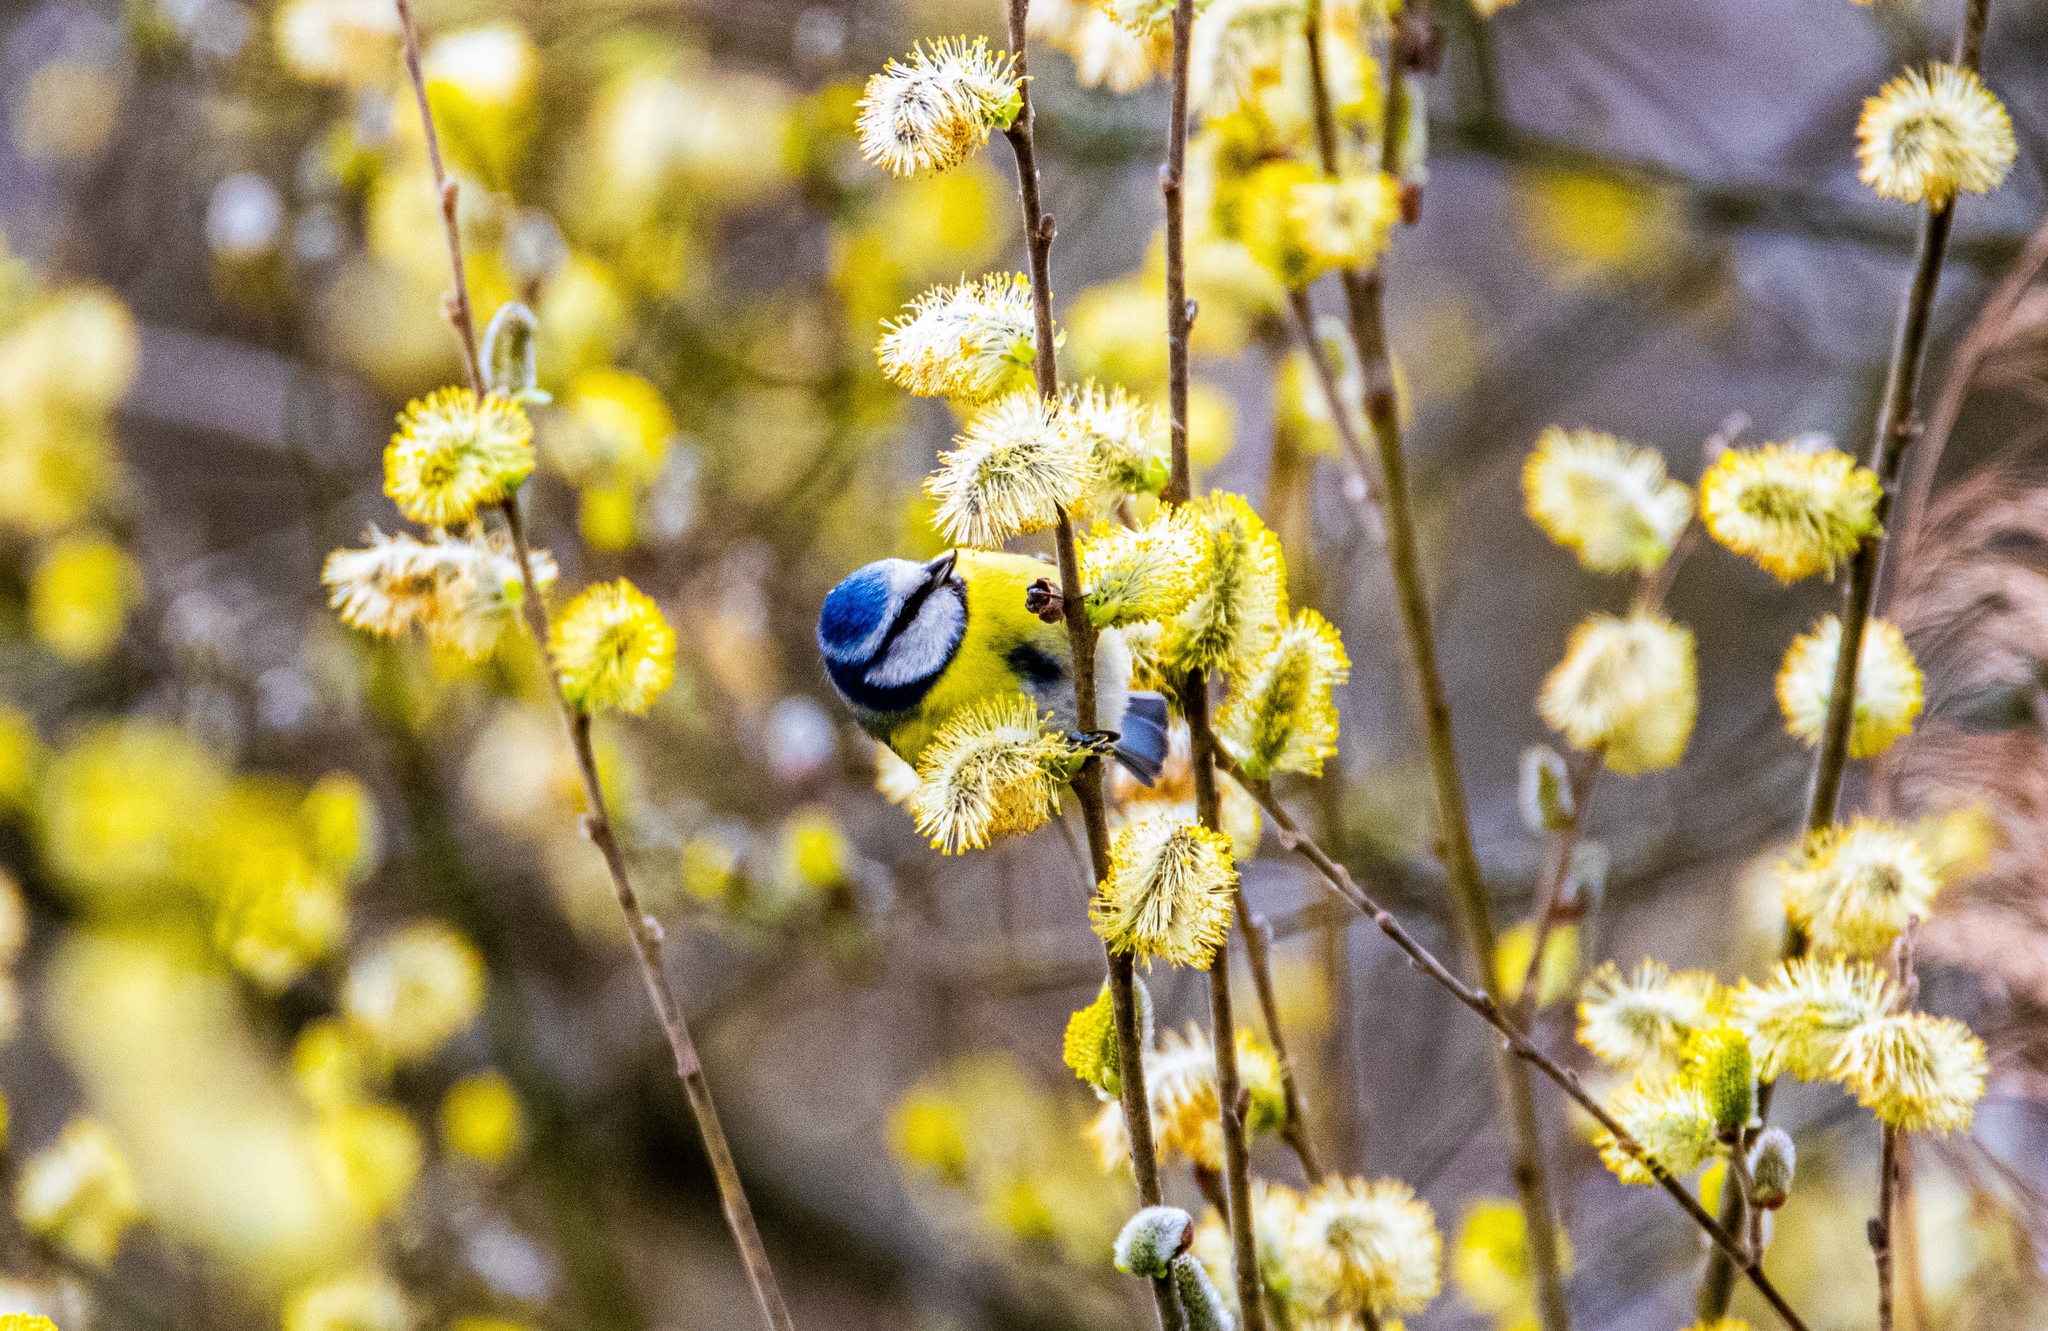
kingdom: Animalia
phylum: Chordata
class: Aves
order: Passeriformes
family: Paridae
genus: Cyanistes
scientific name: Cyanistes caeruleus
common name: Eurasian blue tit
